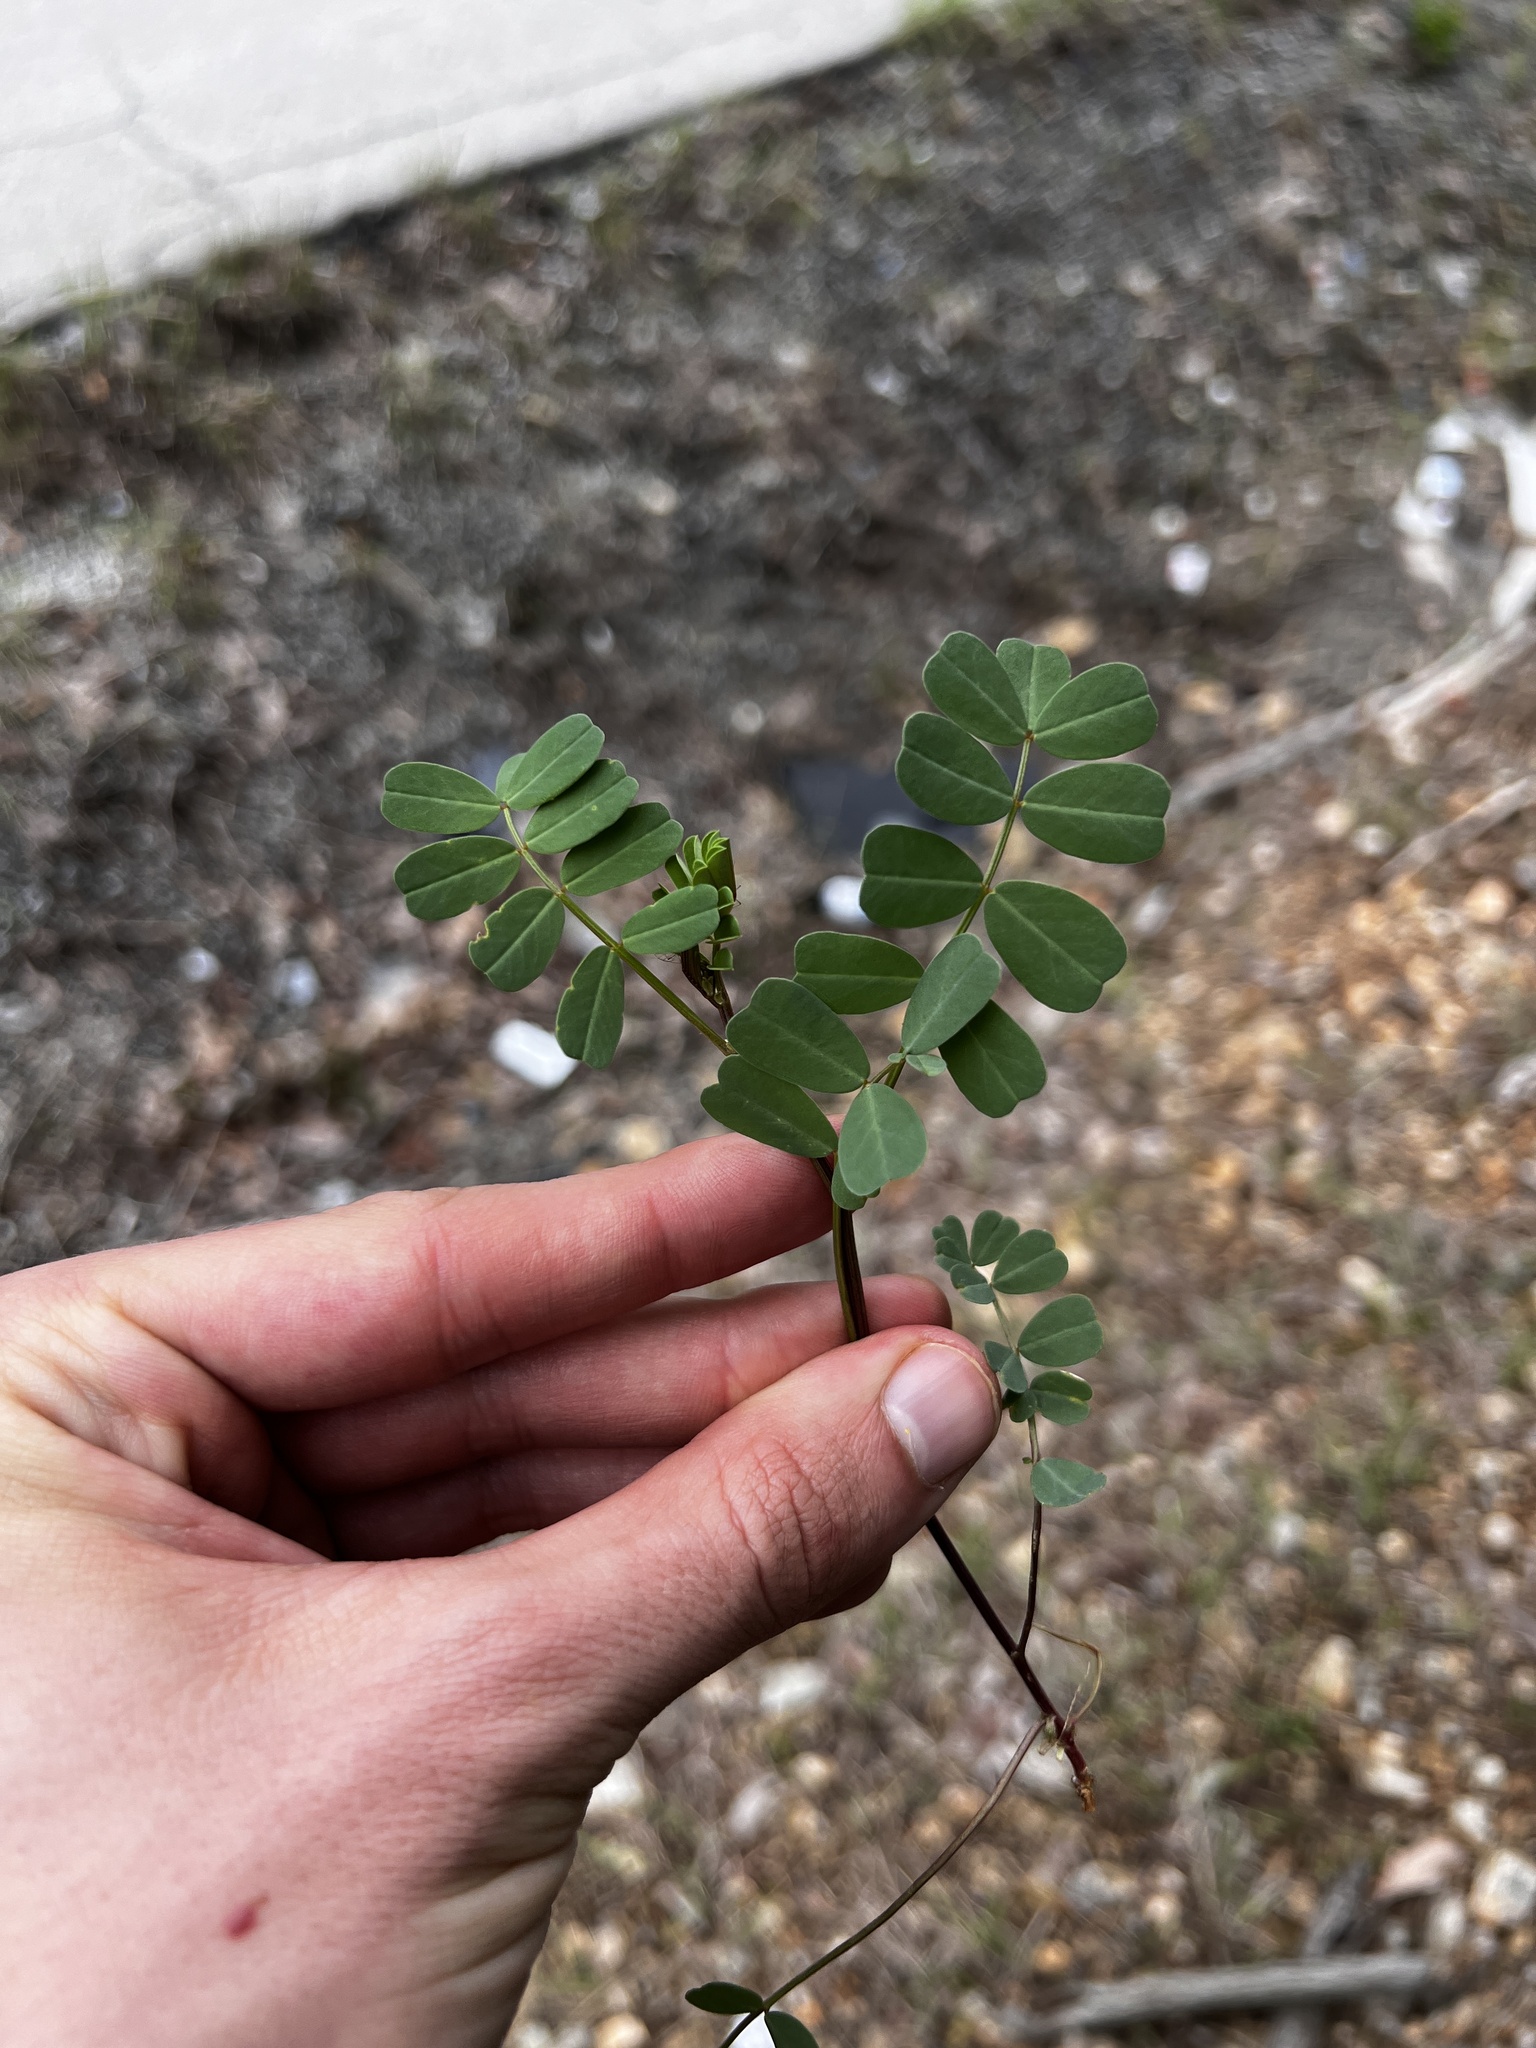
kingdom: Plantae
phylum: Tracheophyta
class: Magnoliopsida
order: Fabales
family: Fabaceae
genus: Coronilla
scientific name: Coronilla varia
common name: Crownvetch
